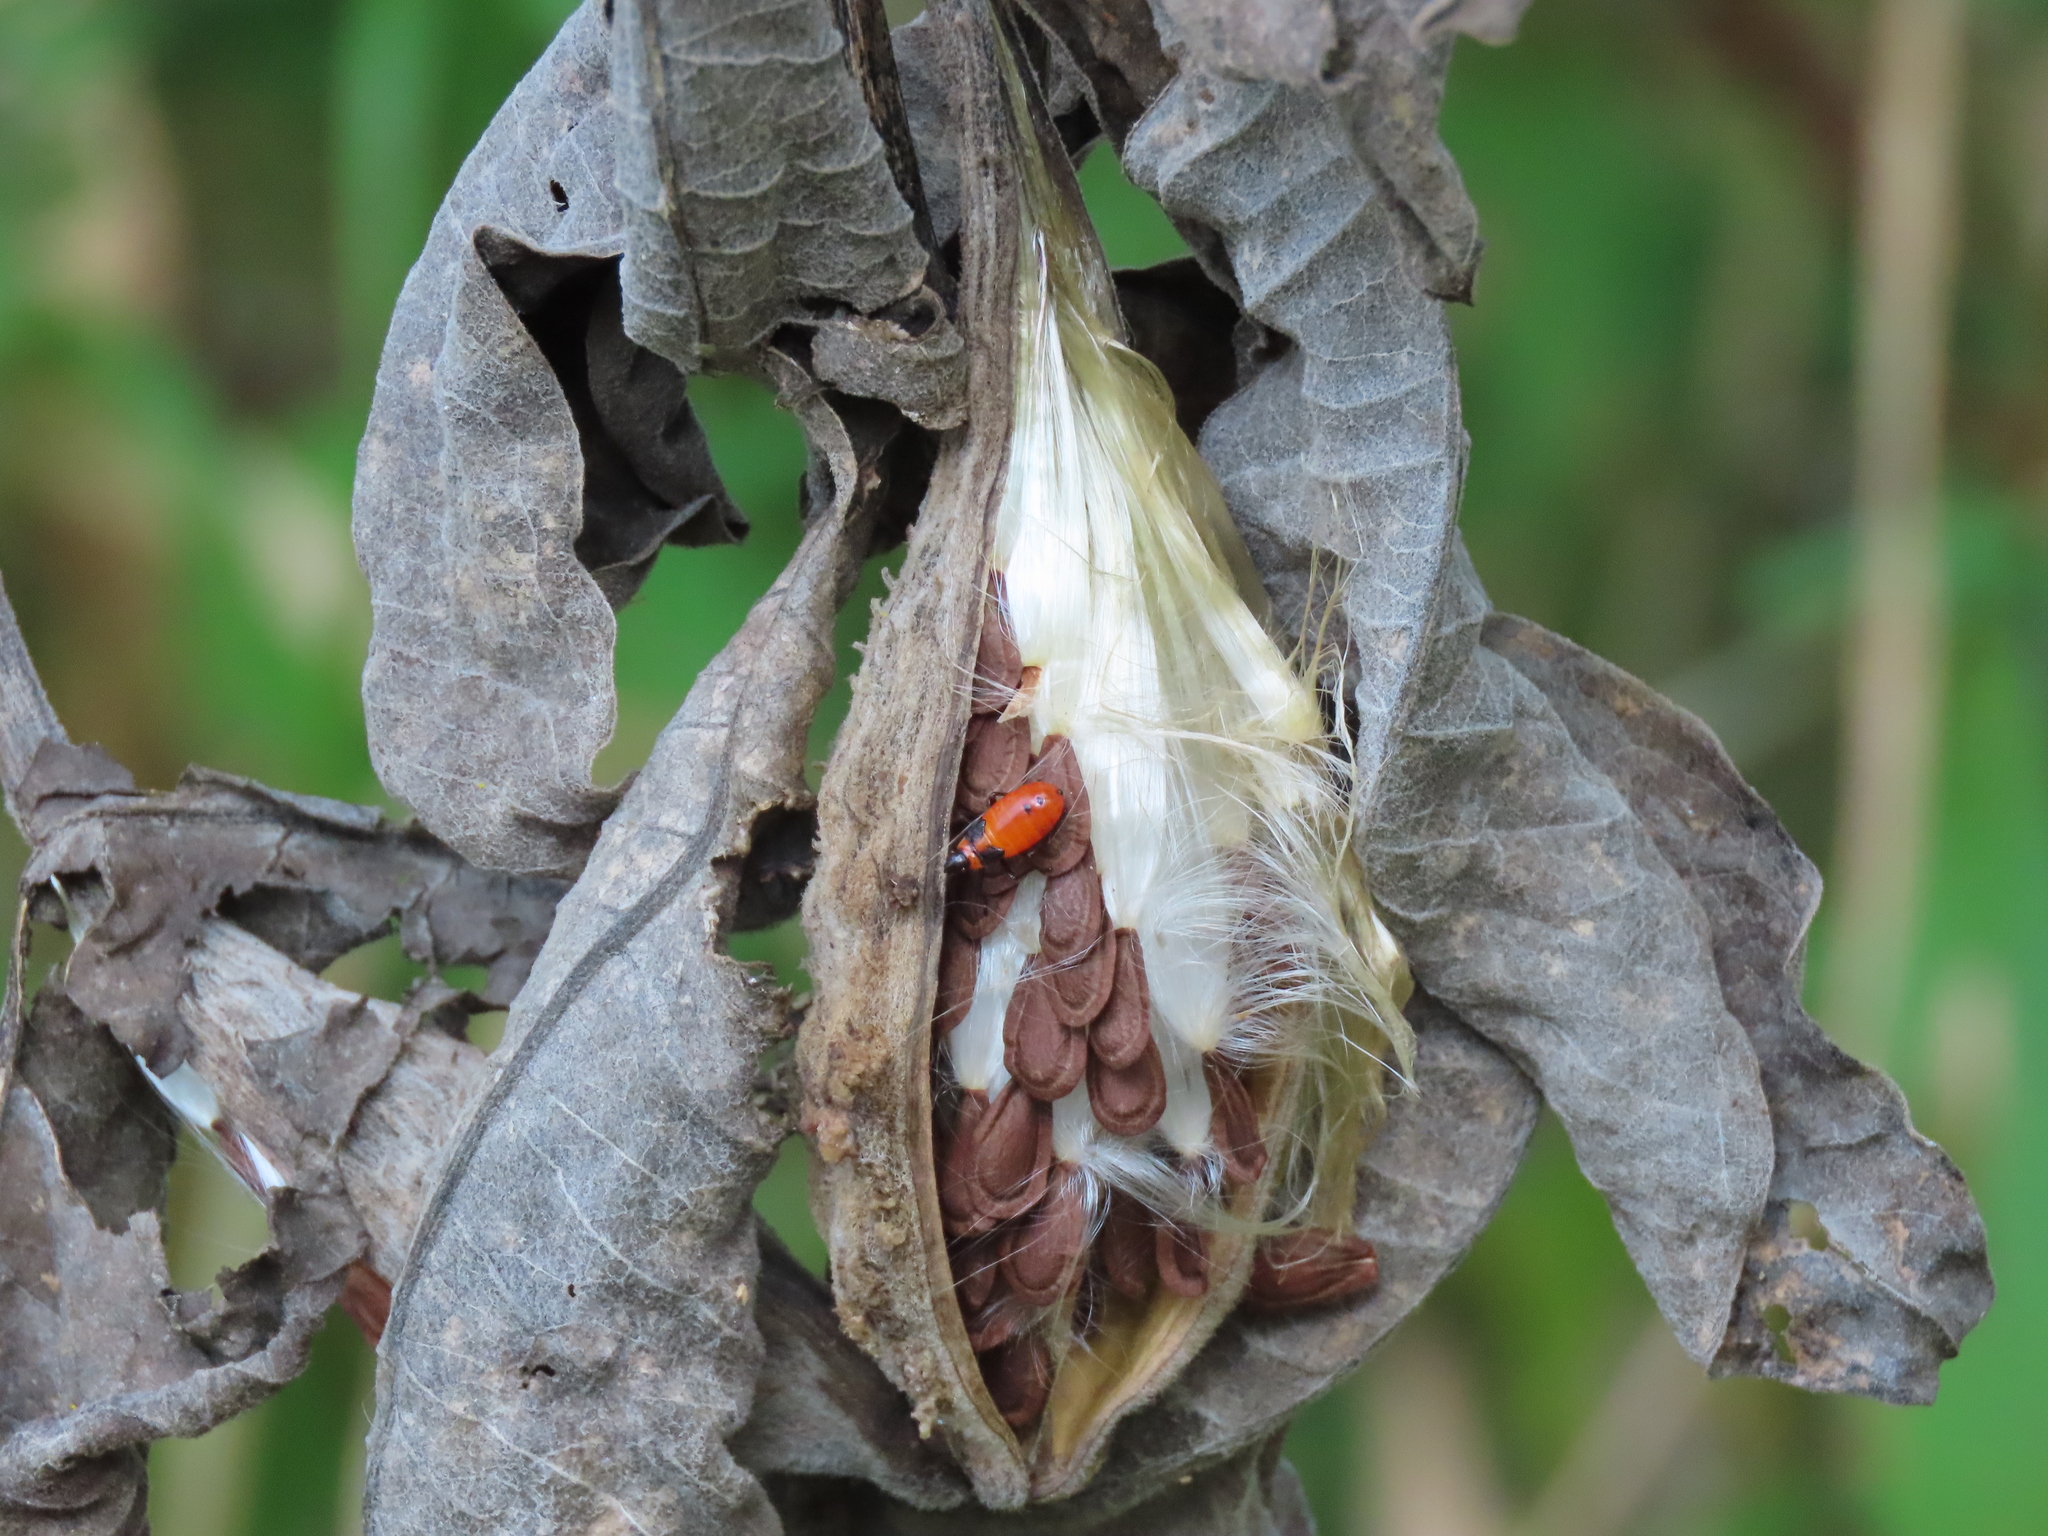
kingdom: Plantae
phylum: Tracheophyta
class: Magnoliopsida
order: Gentianales
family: Apocynaceae
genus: Asclepias
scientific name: Asclepias syriaca
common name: Common milkweed
